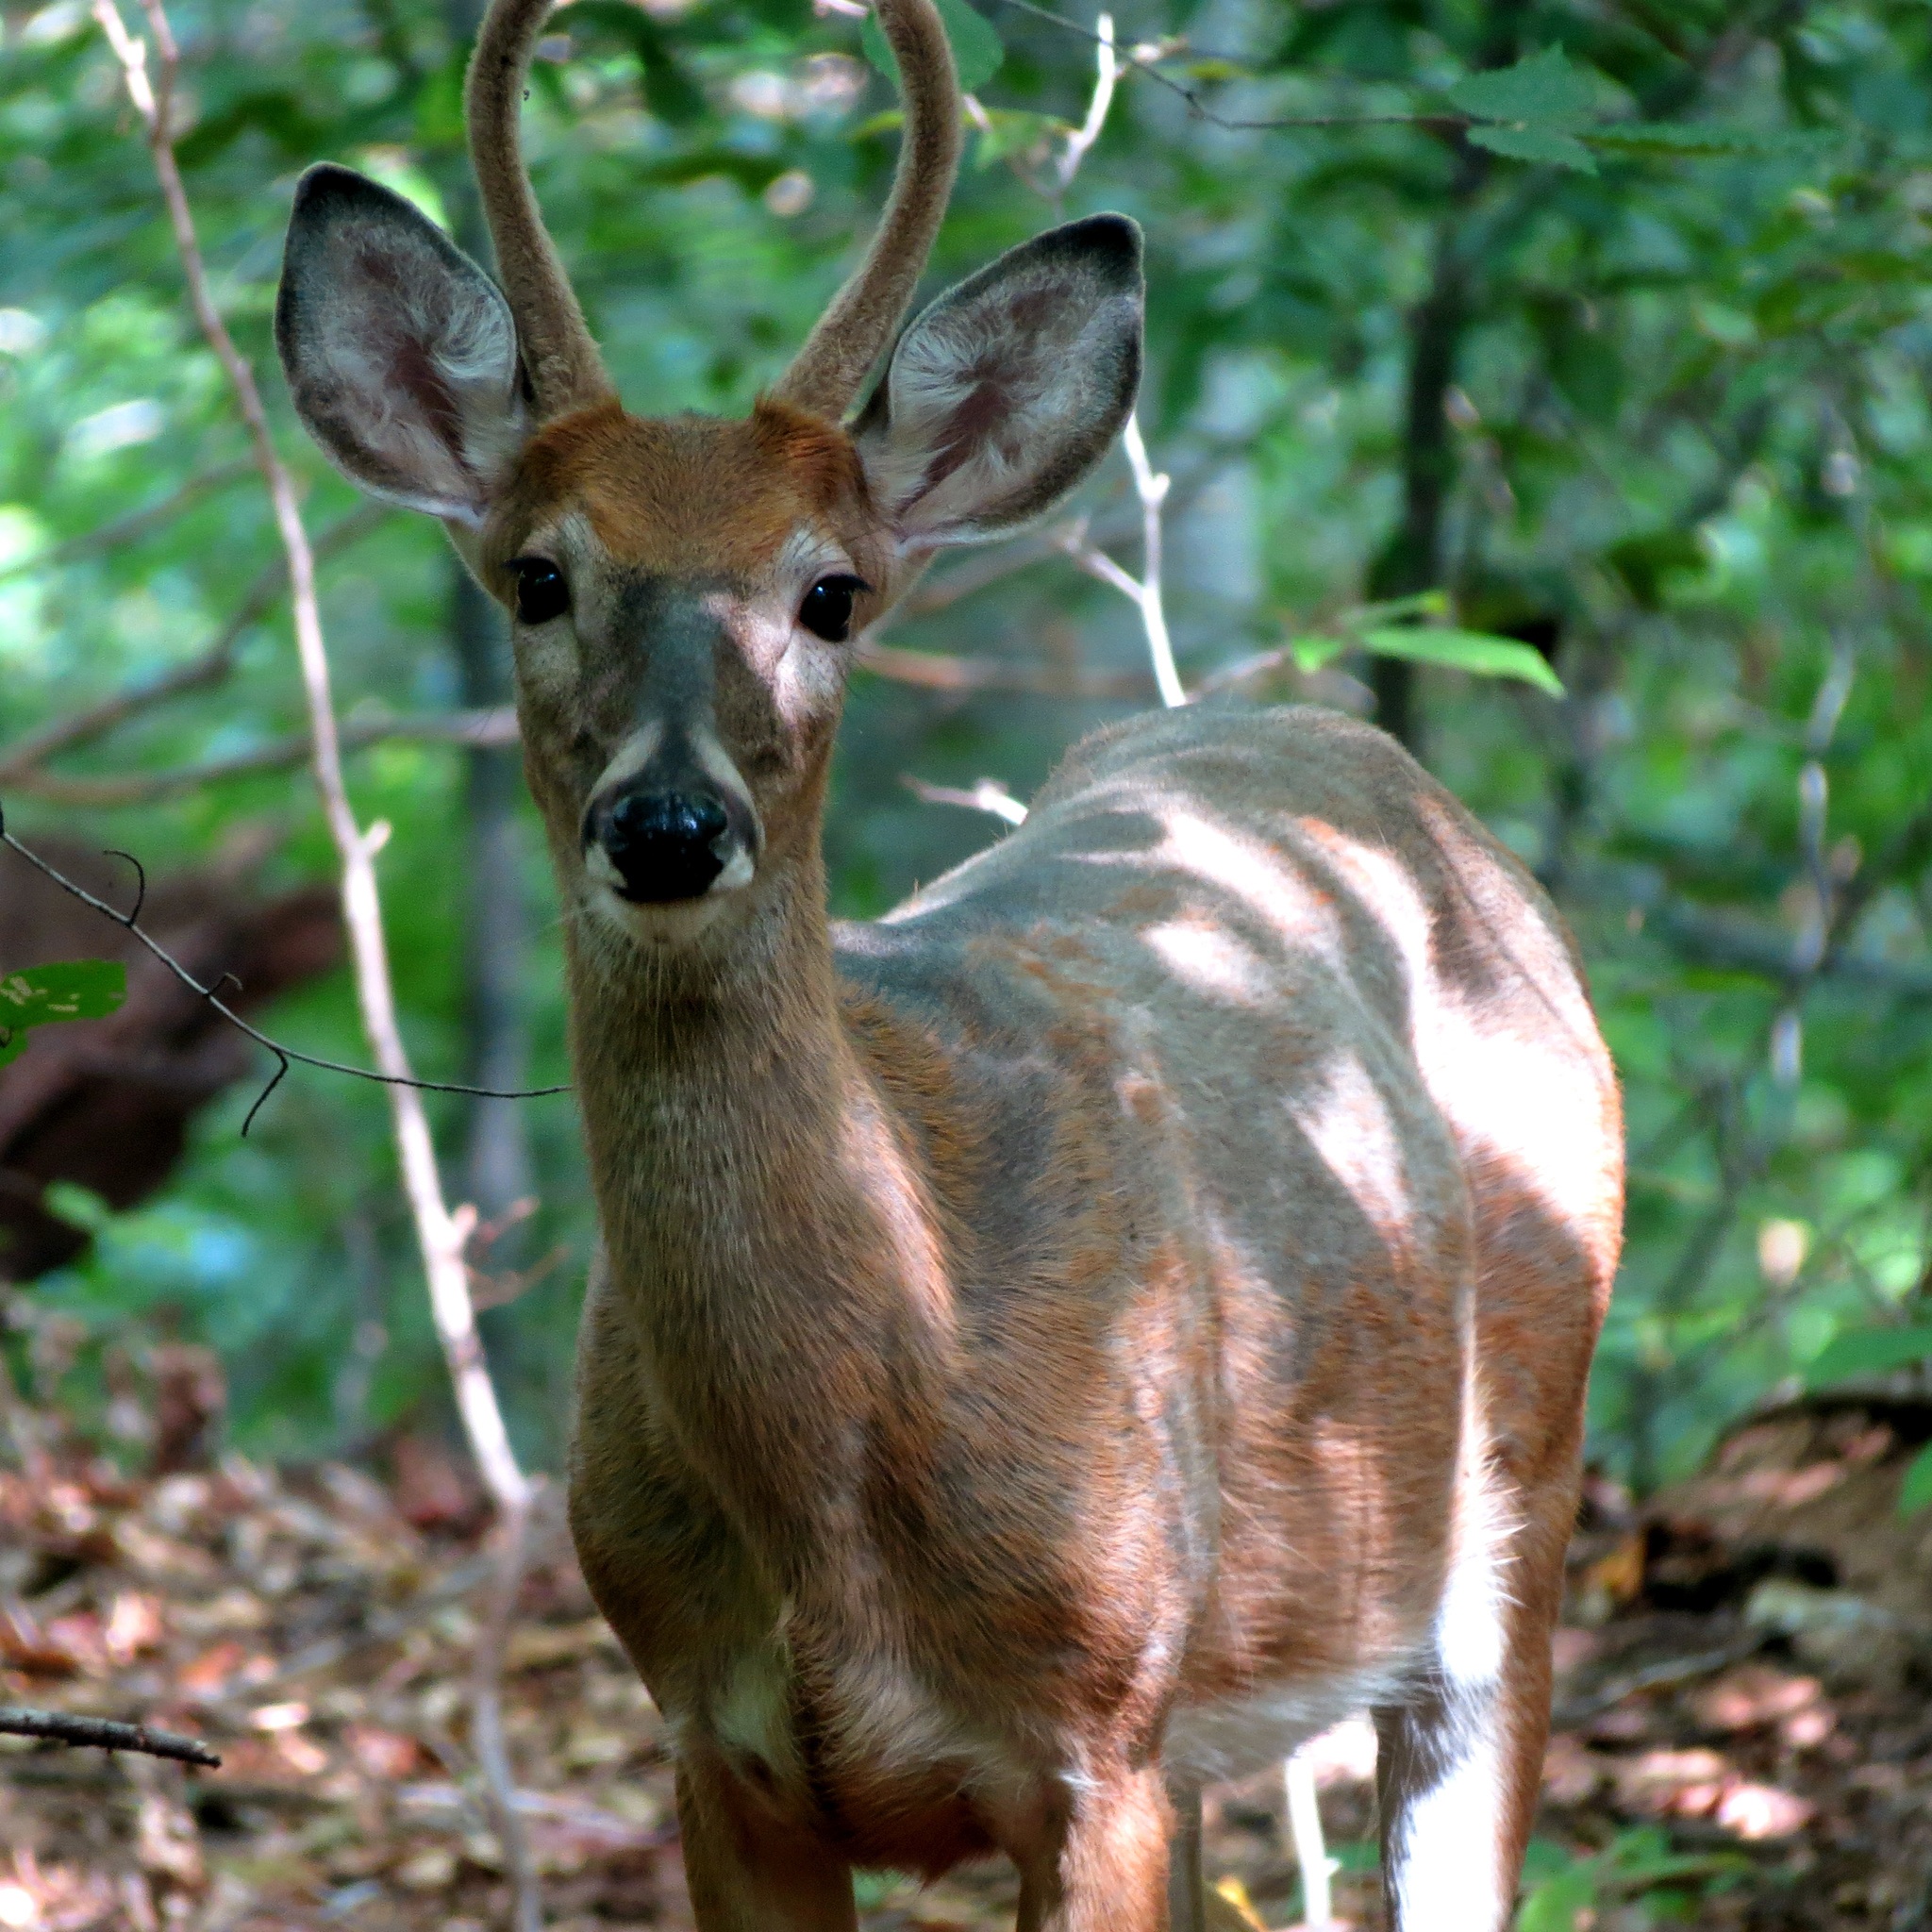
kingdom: Animalia
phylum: Chordata
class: Mammalia
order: Artiodactyla
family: Cervidae
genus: Odocoileus
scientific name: Odocoileus virginianus
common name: White-tailed deer
